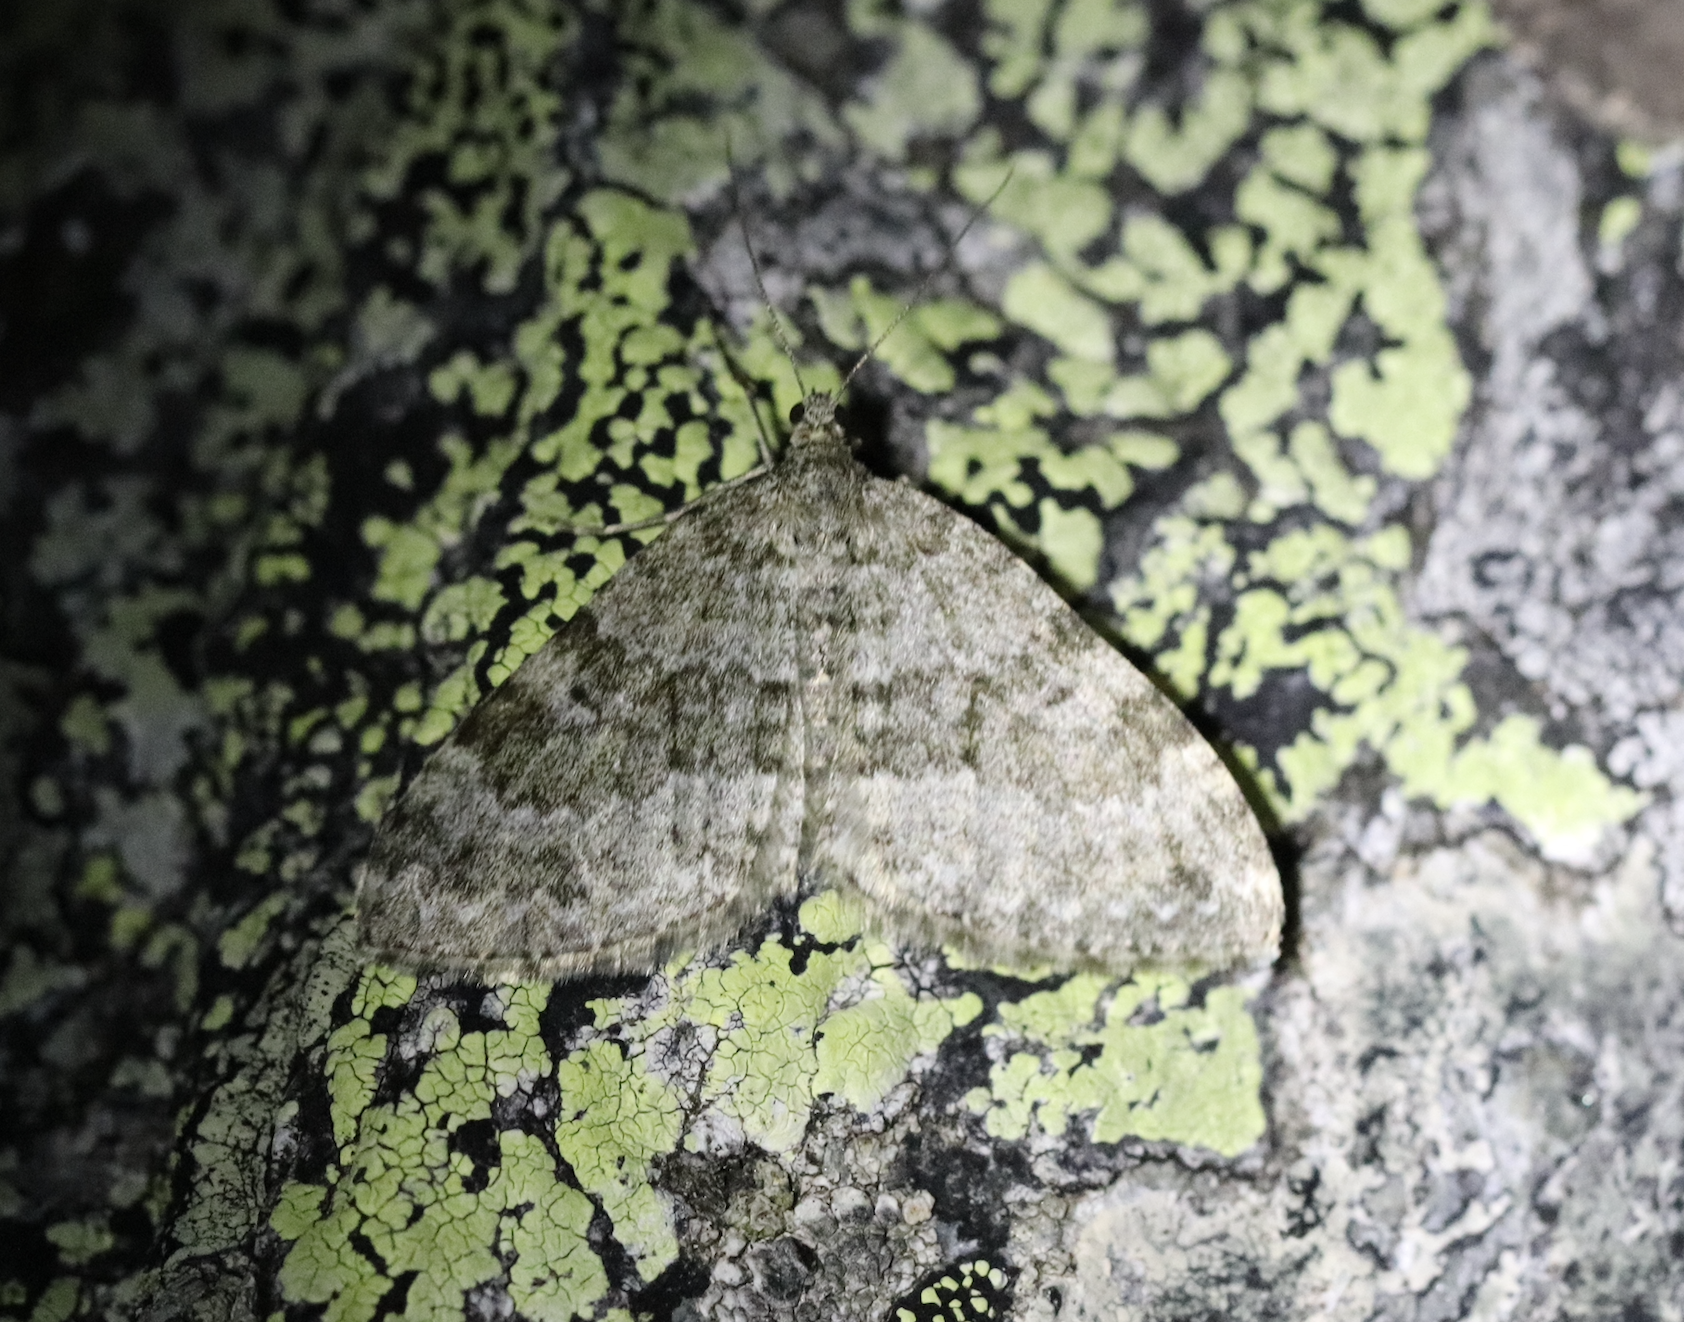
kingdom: Animalia
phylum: Arthropoda
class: Insecta
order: Lepidoptera
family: Geometridae
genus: Entephria
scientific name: Entephria caesiata
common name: Grey mountain moth
